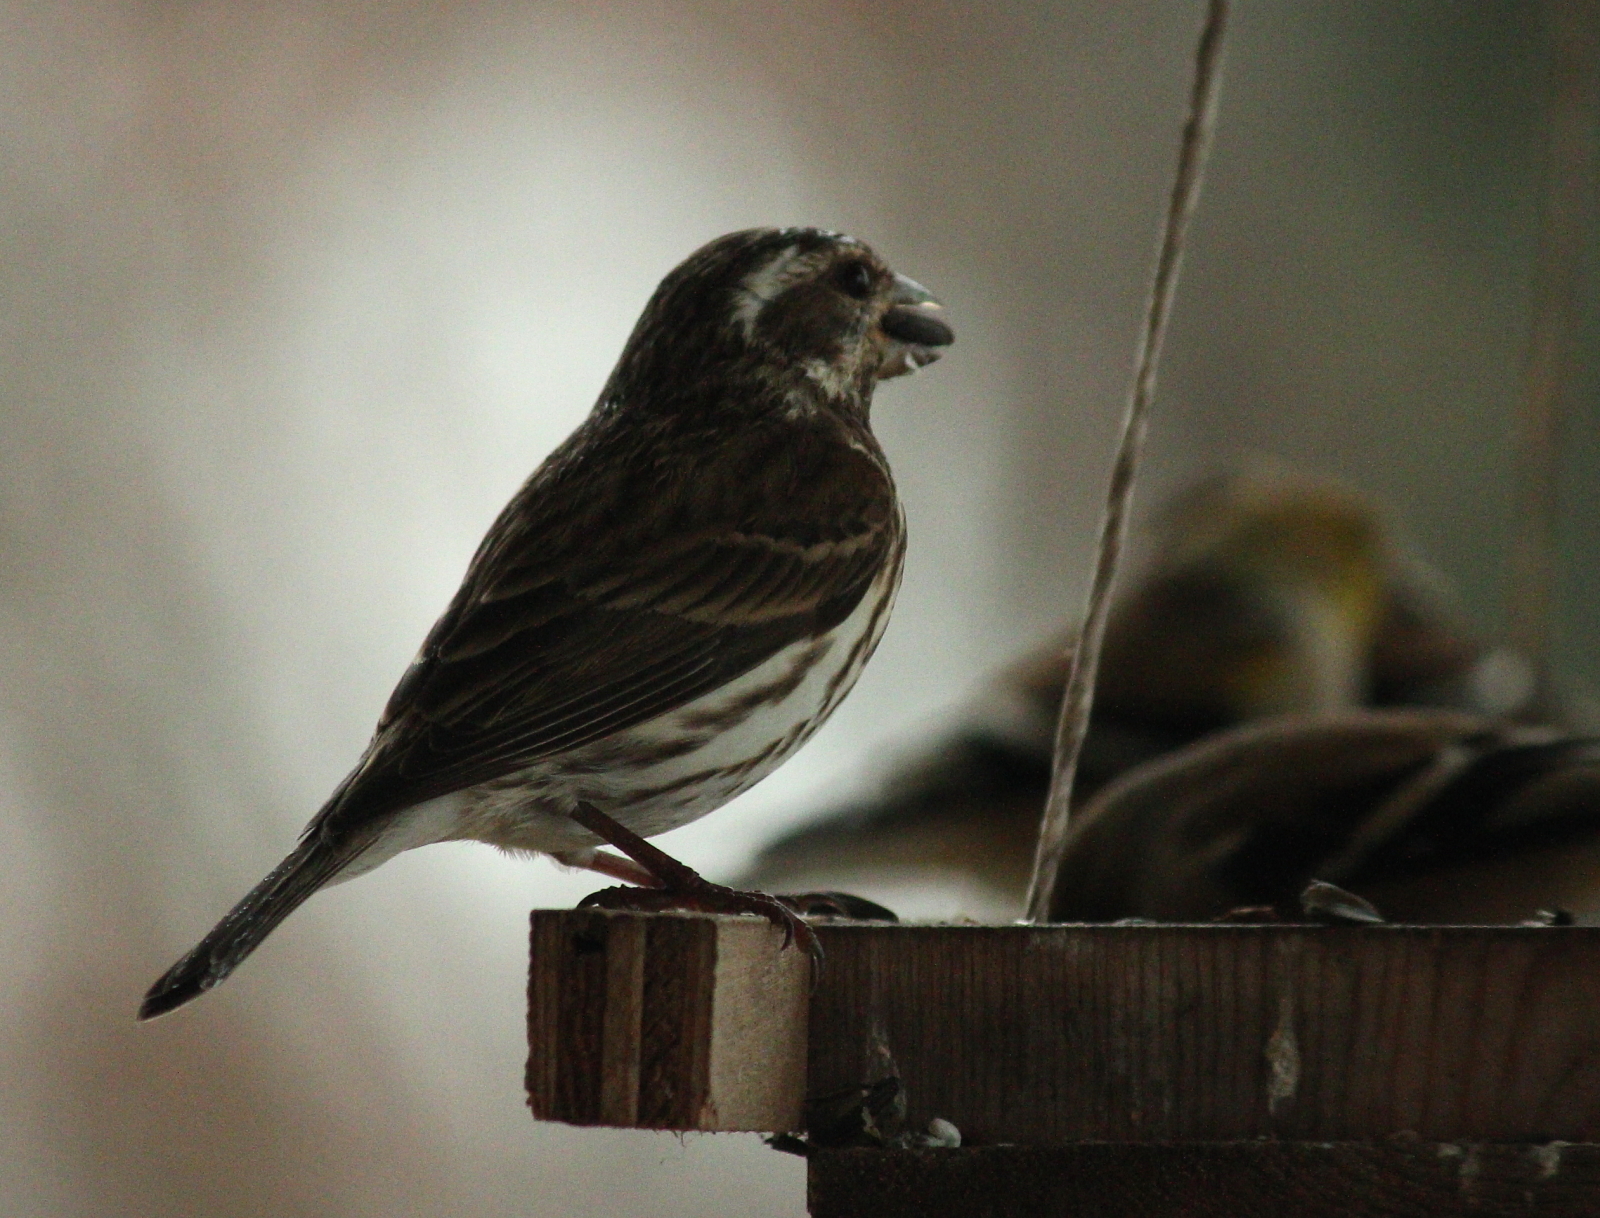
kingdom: Animalia
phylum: Chordata
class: Aves
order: Passeriformes
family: Fringillidae
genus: Haemorhous
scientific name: Haemorhous purpureus
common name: Purple finch
